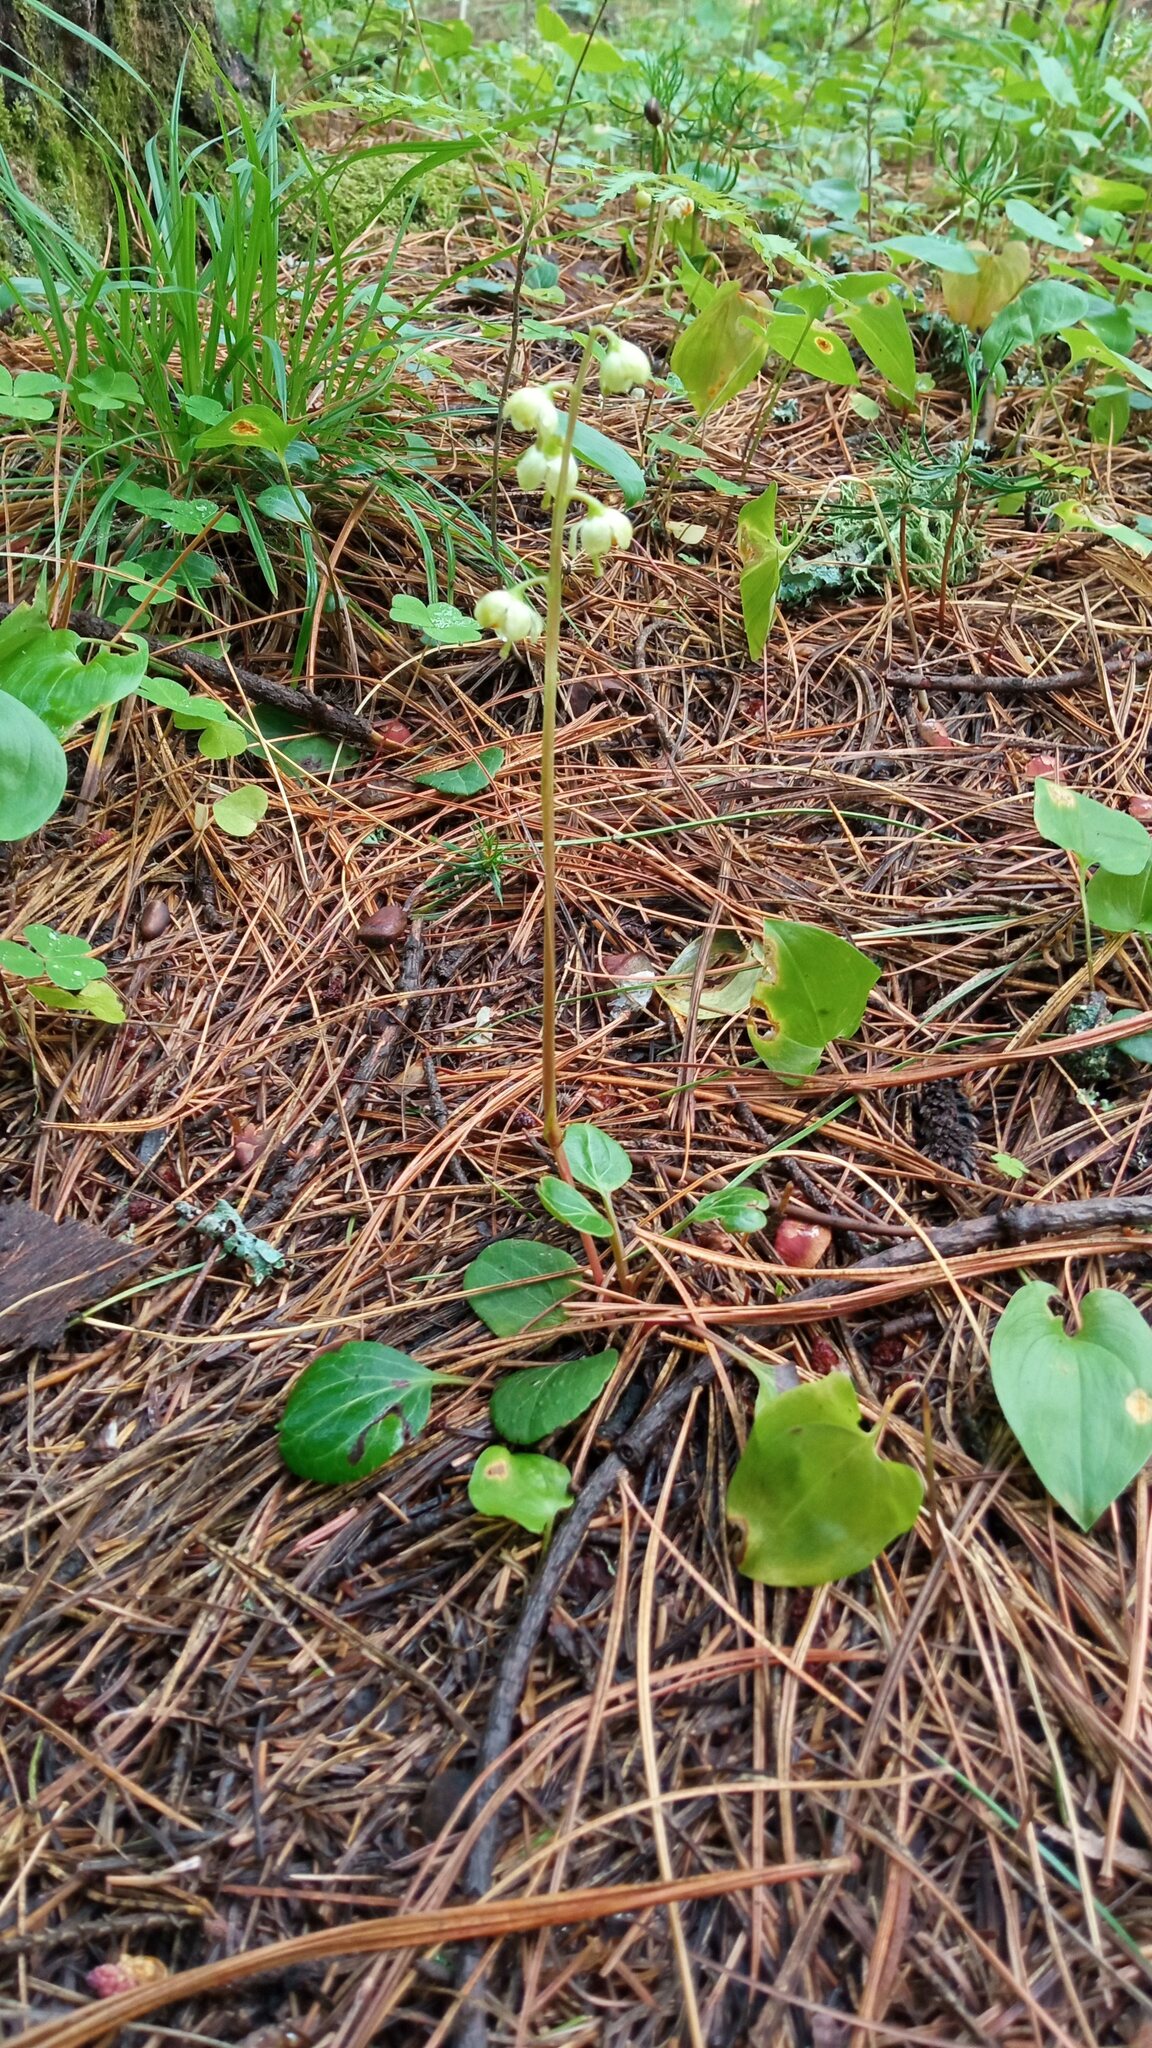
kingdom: Plantae
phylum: Tracheophyta
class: Magnoliopsida
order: Ericales
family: Ericaceae
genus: Pyrola
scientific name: Pyrola chlorantha
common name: Green wintergreen
